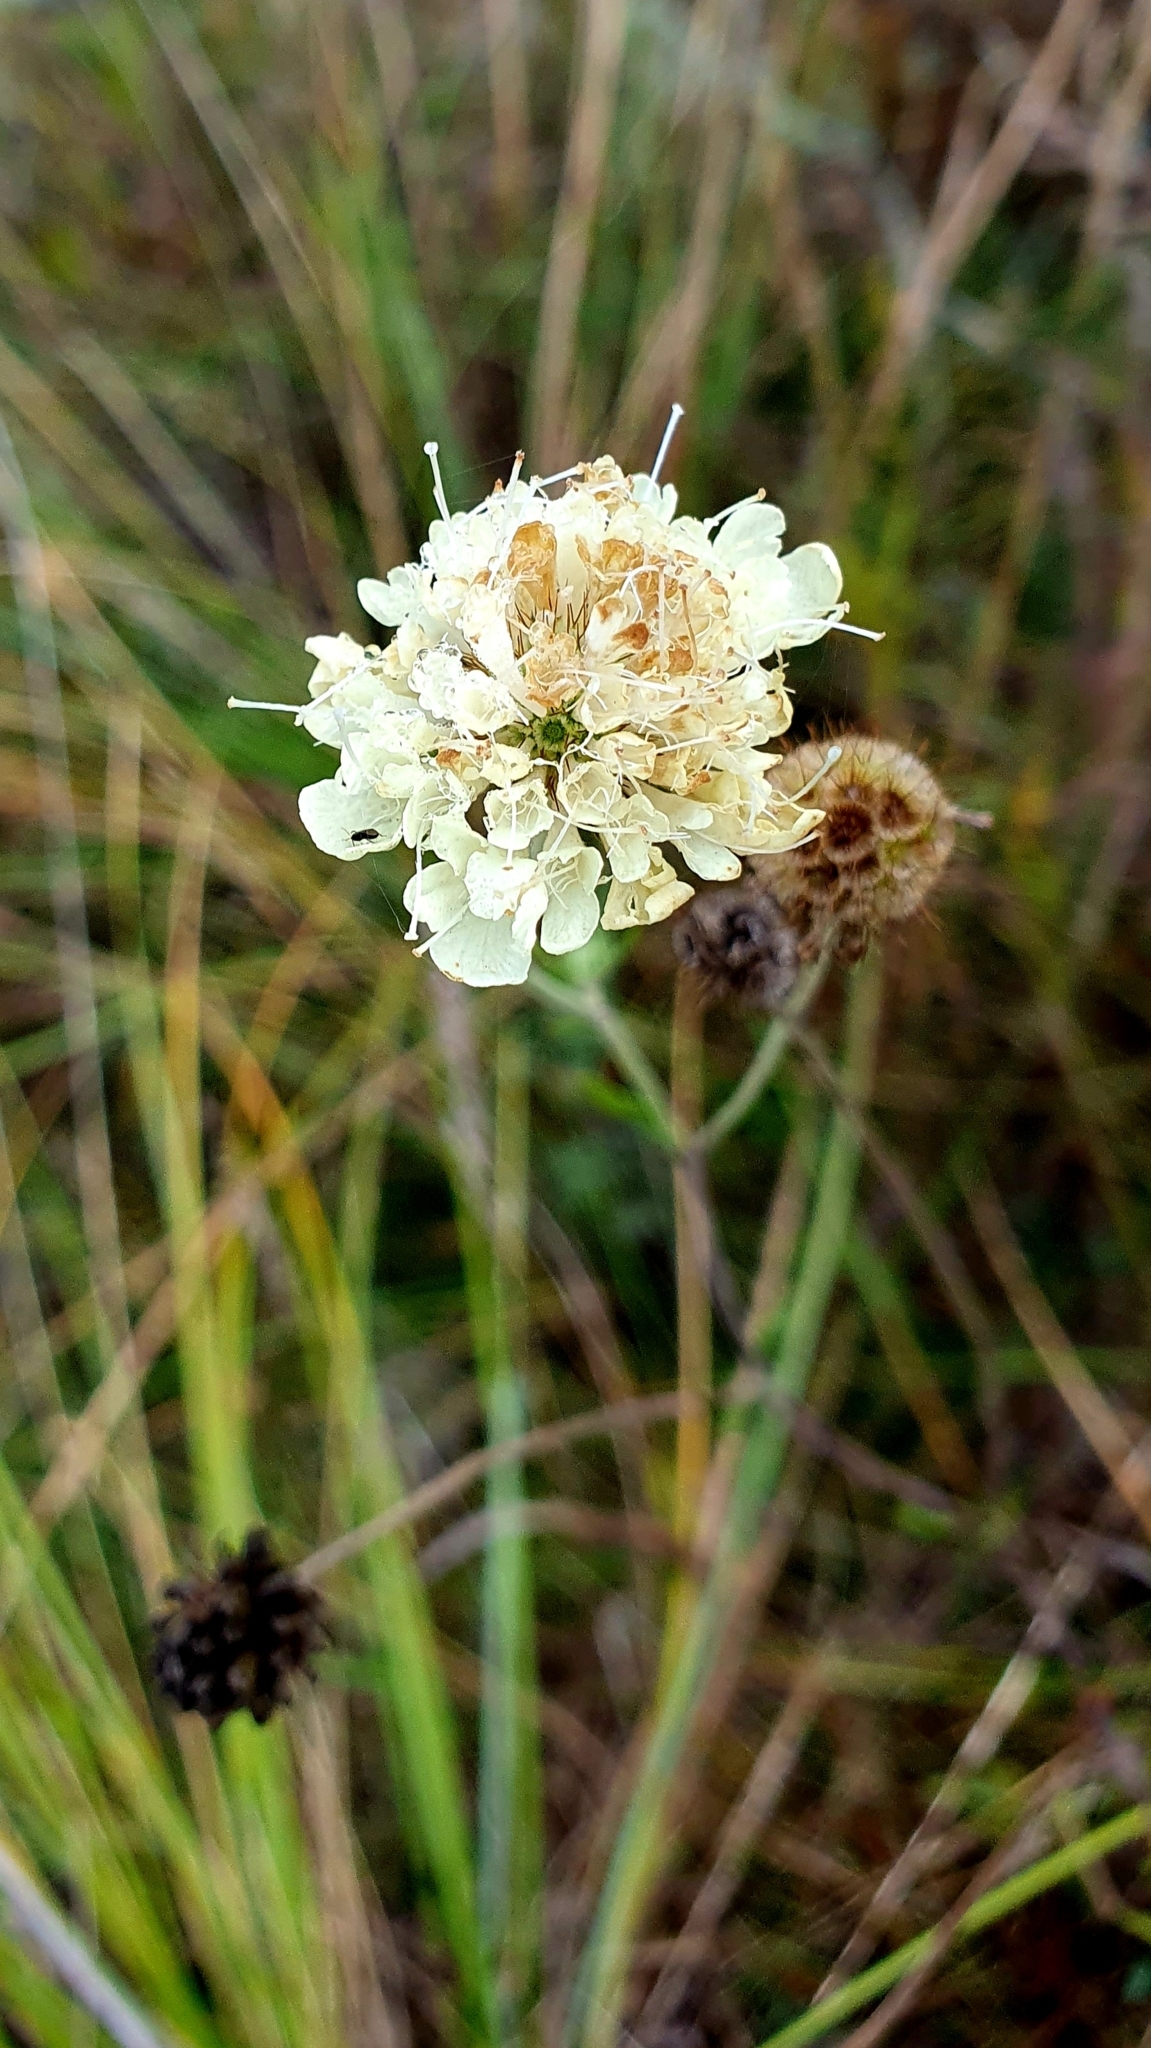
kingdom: Plantae
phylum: Tracheophyta
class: Magnoliopsida
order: Dipsacales
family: Caprifoliaceae
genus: Scabiosa
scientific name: Scabiosa ochroleuca
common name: Cream pincushions
